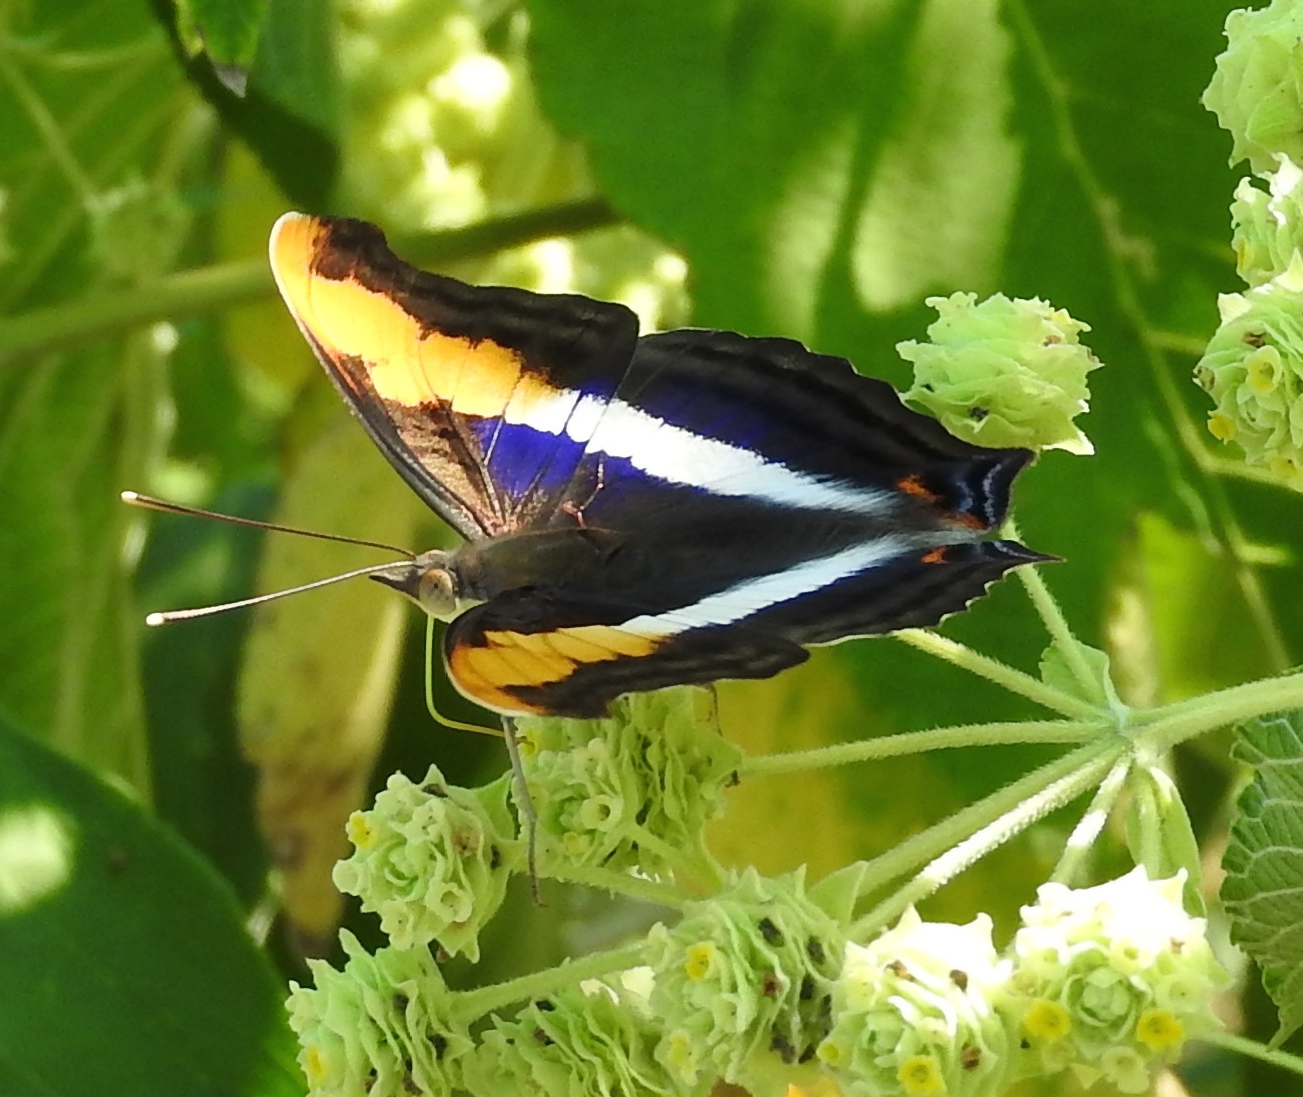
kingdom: Animalia
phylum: Arthropoda
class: Insecta
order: Lepidoptera
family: Nymphalidae
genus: Doxocopa
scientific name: Doxocopa laure
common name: Silver emperor
